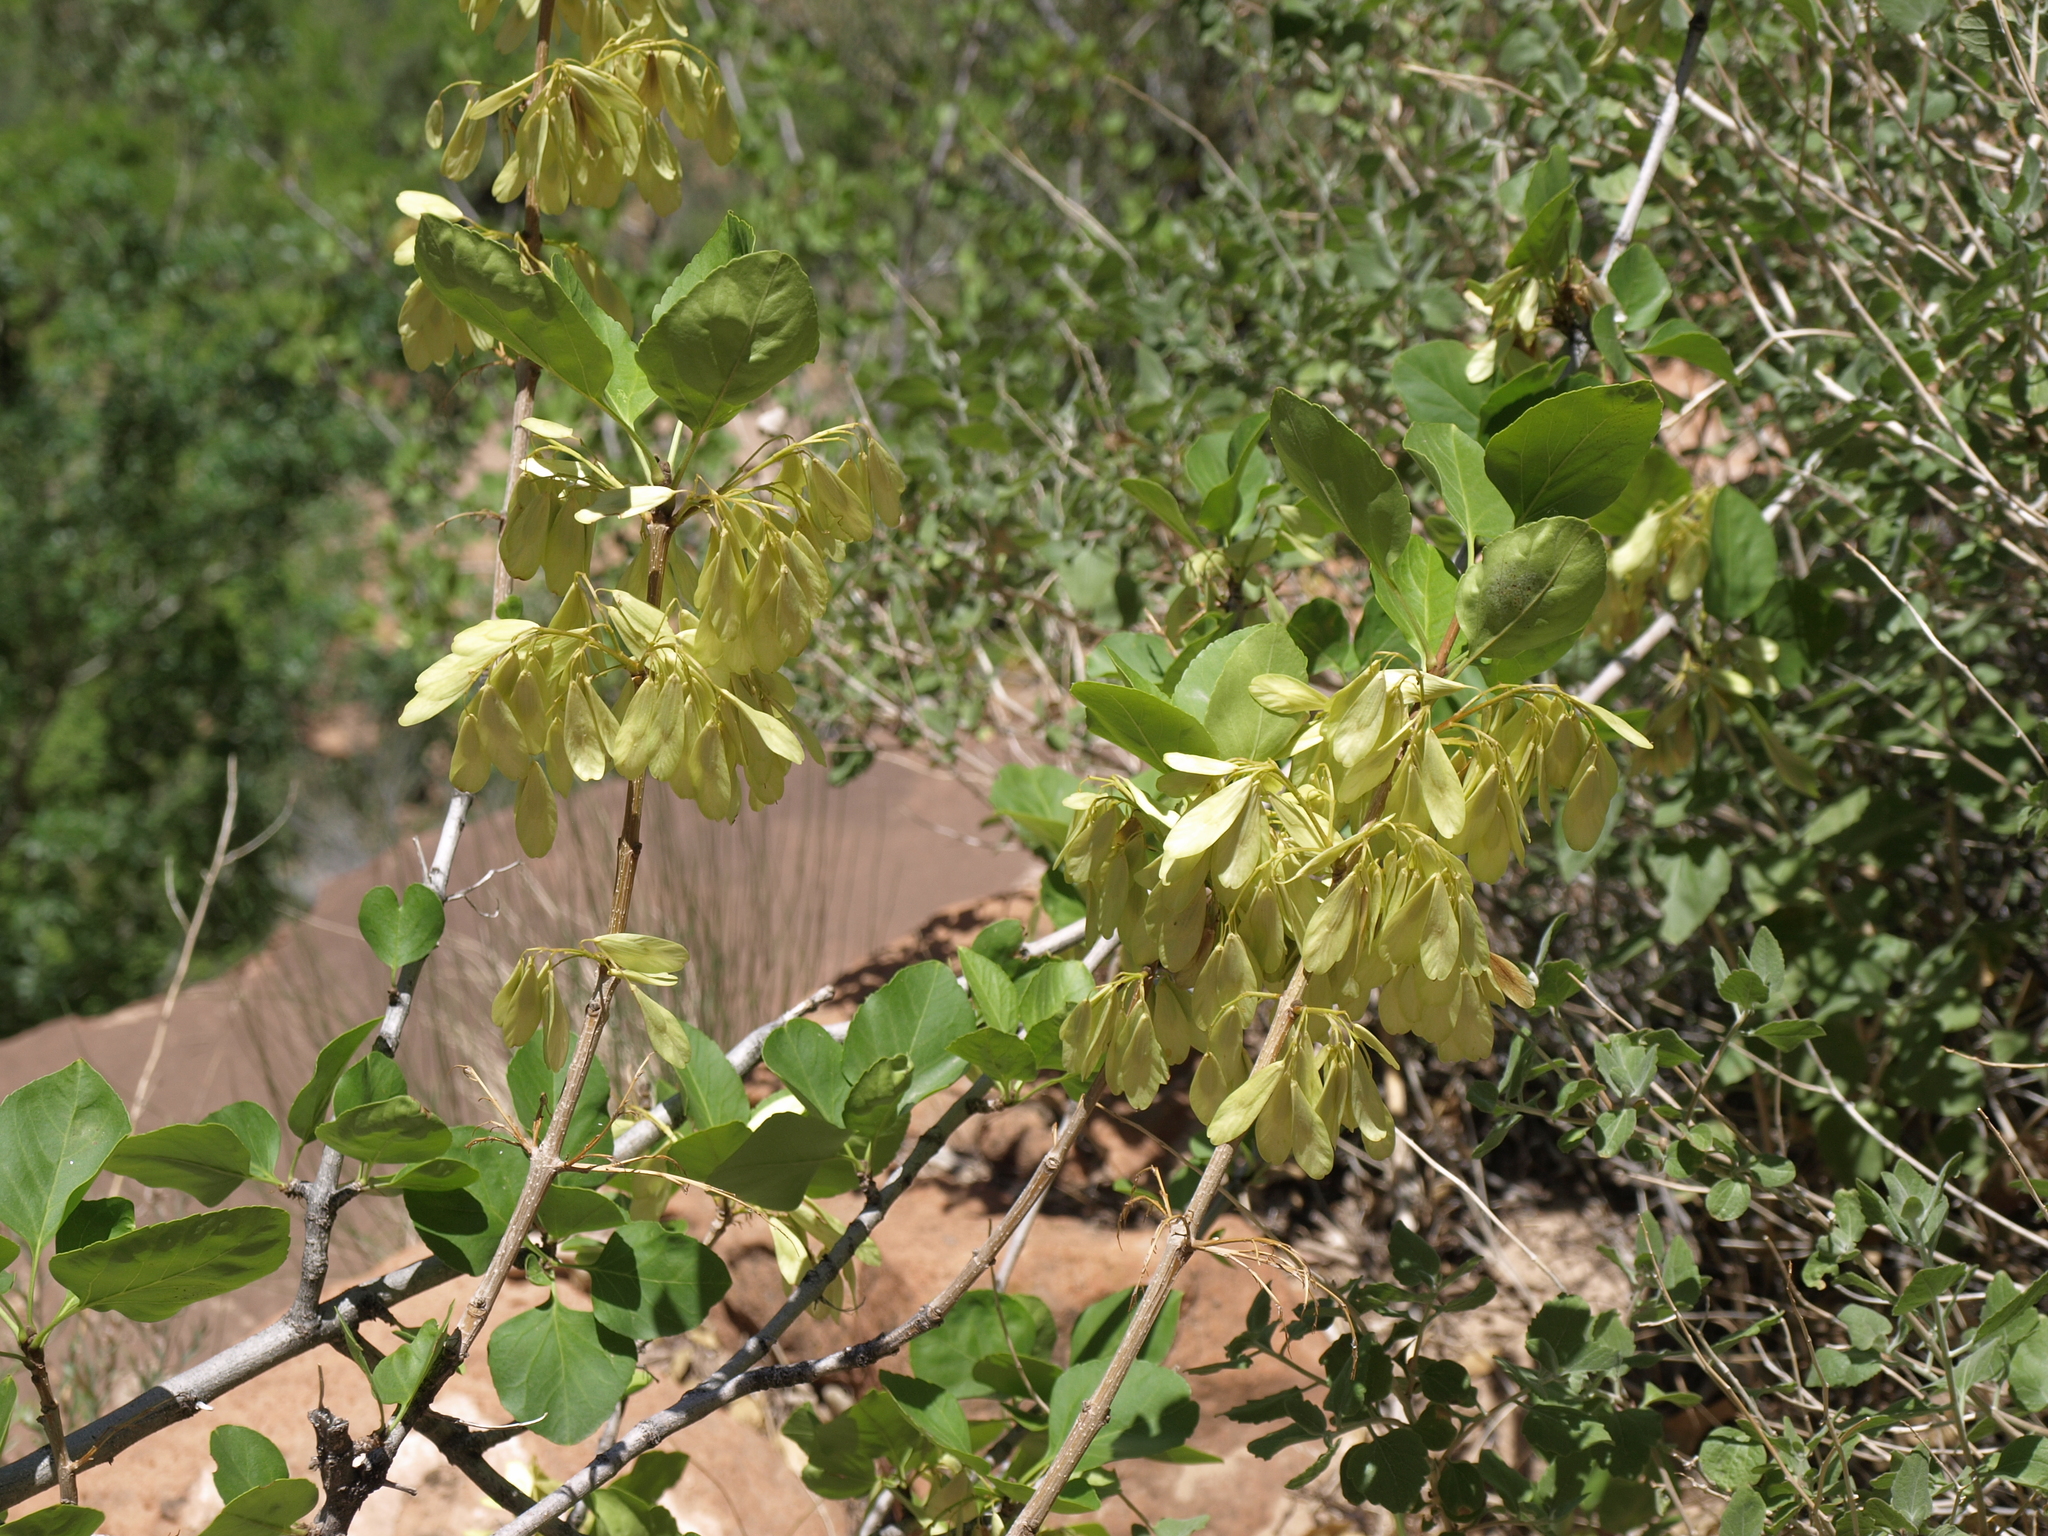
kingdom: Plantae
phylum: Tracheophyta
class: Magnoliopsida
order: Lamiales
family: Oleaceae
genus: Fraxinus
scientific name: Fraxinus anomala
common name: Utah ash
